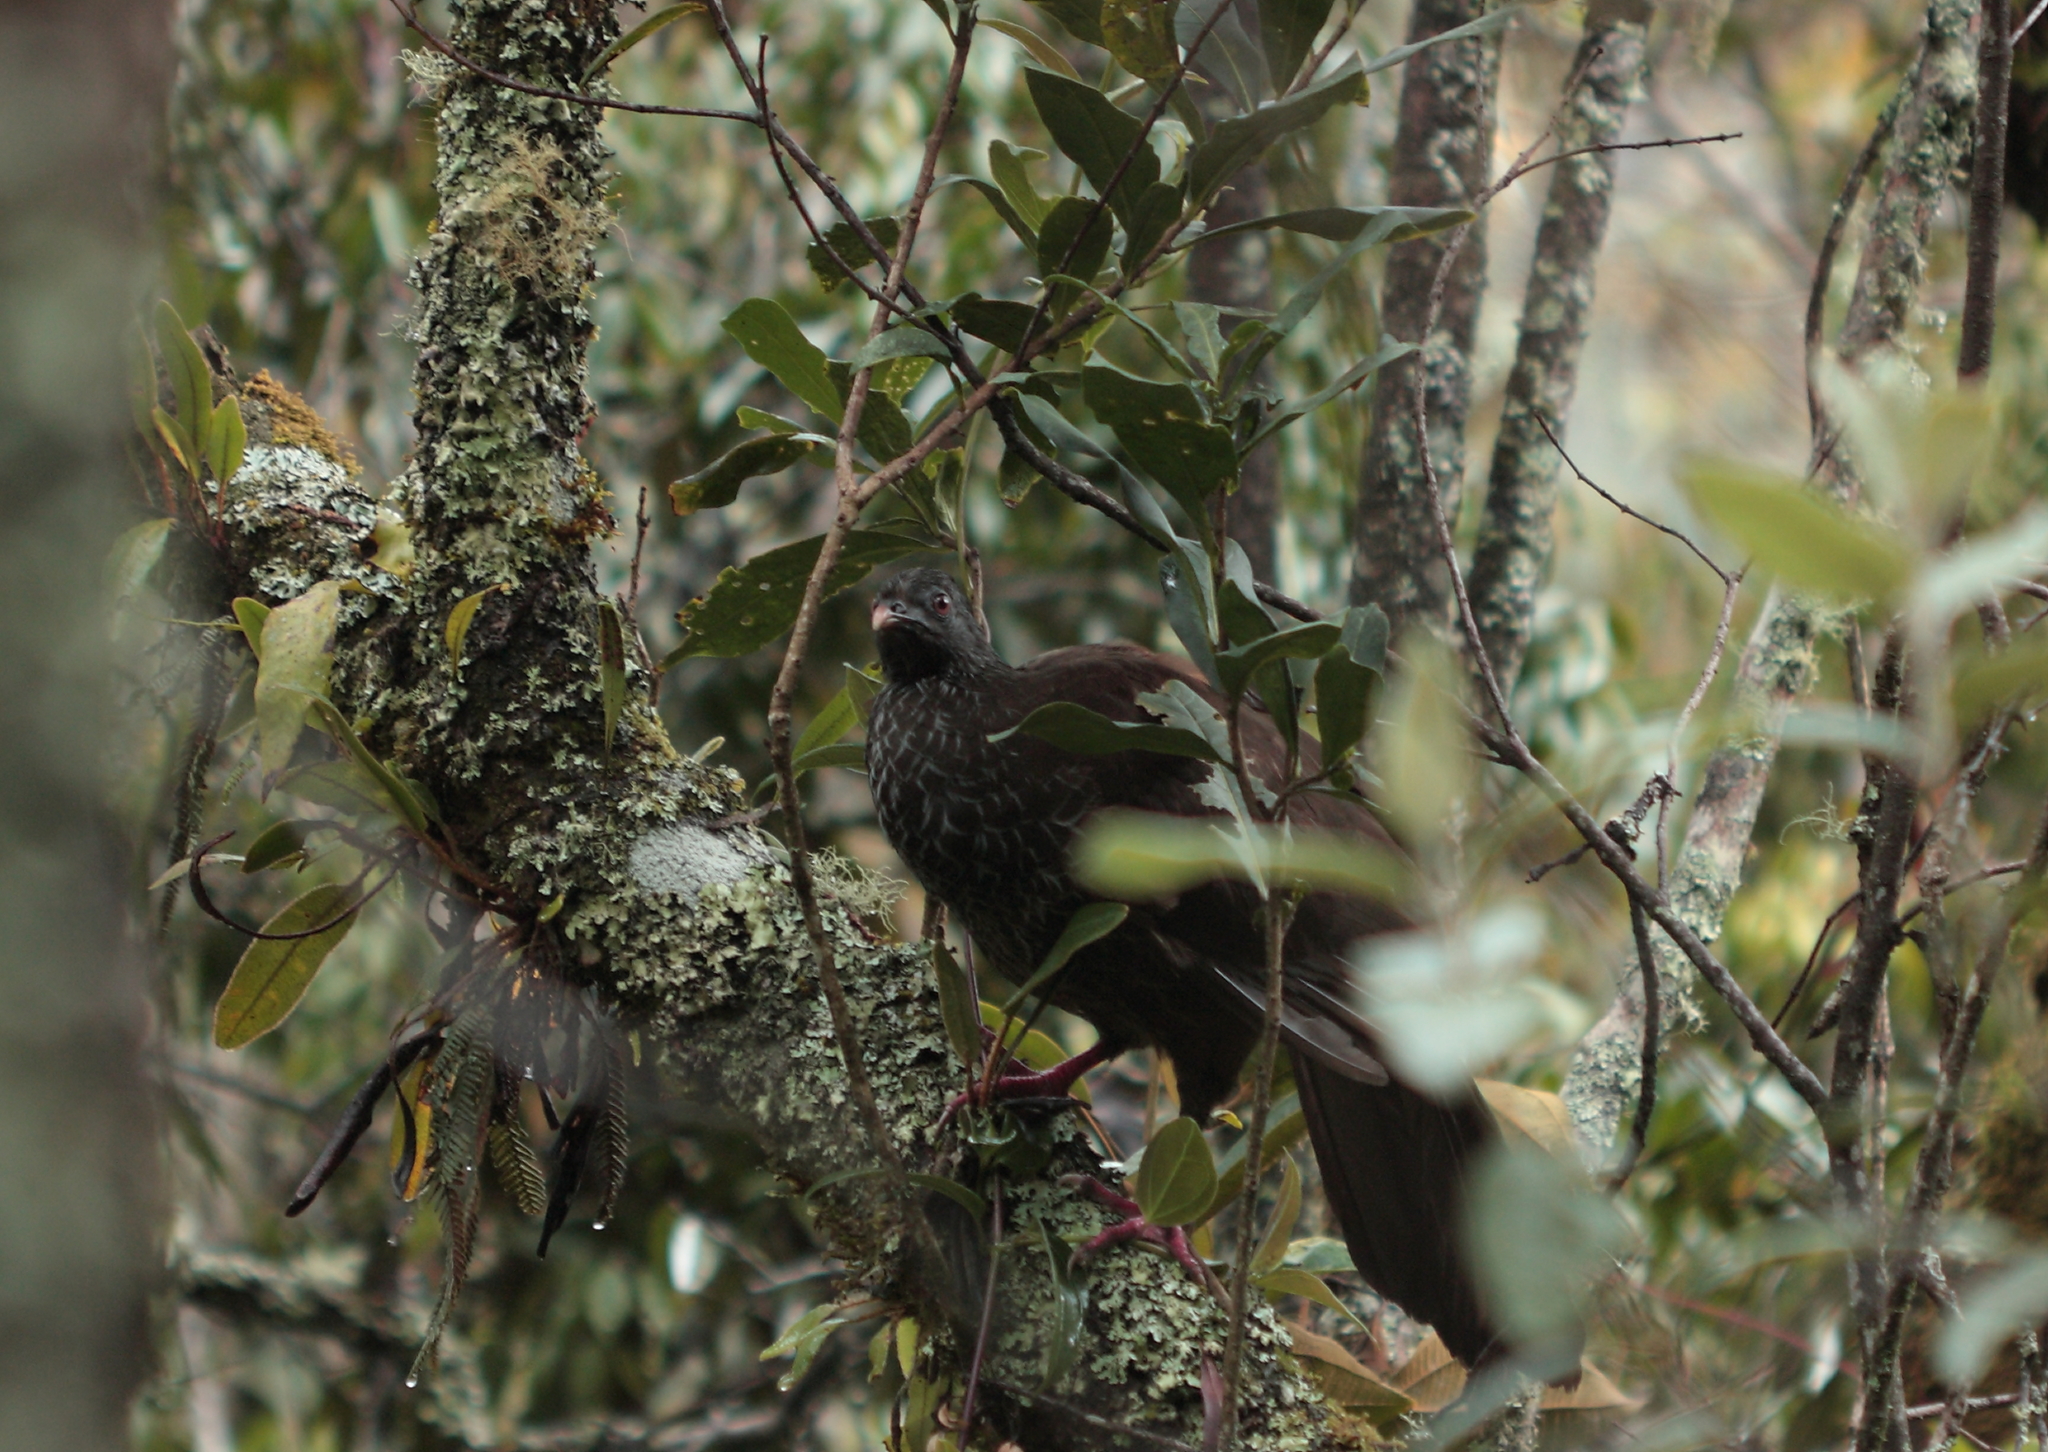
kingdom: Animalia
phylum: Chordata
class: Aves
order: Galliformes
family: Cracidae
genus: Penelope
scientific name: Penelope montagnii
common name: Andean guan
